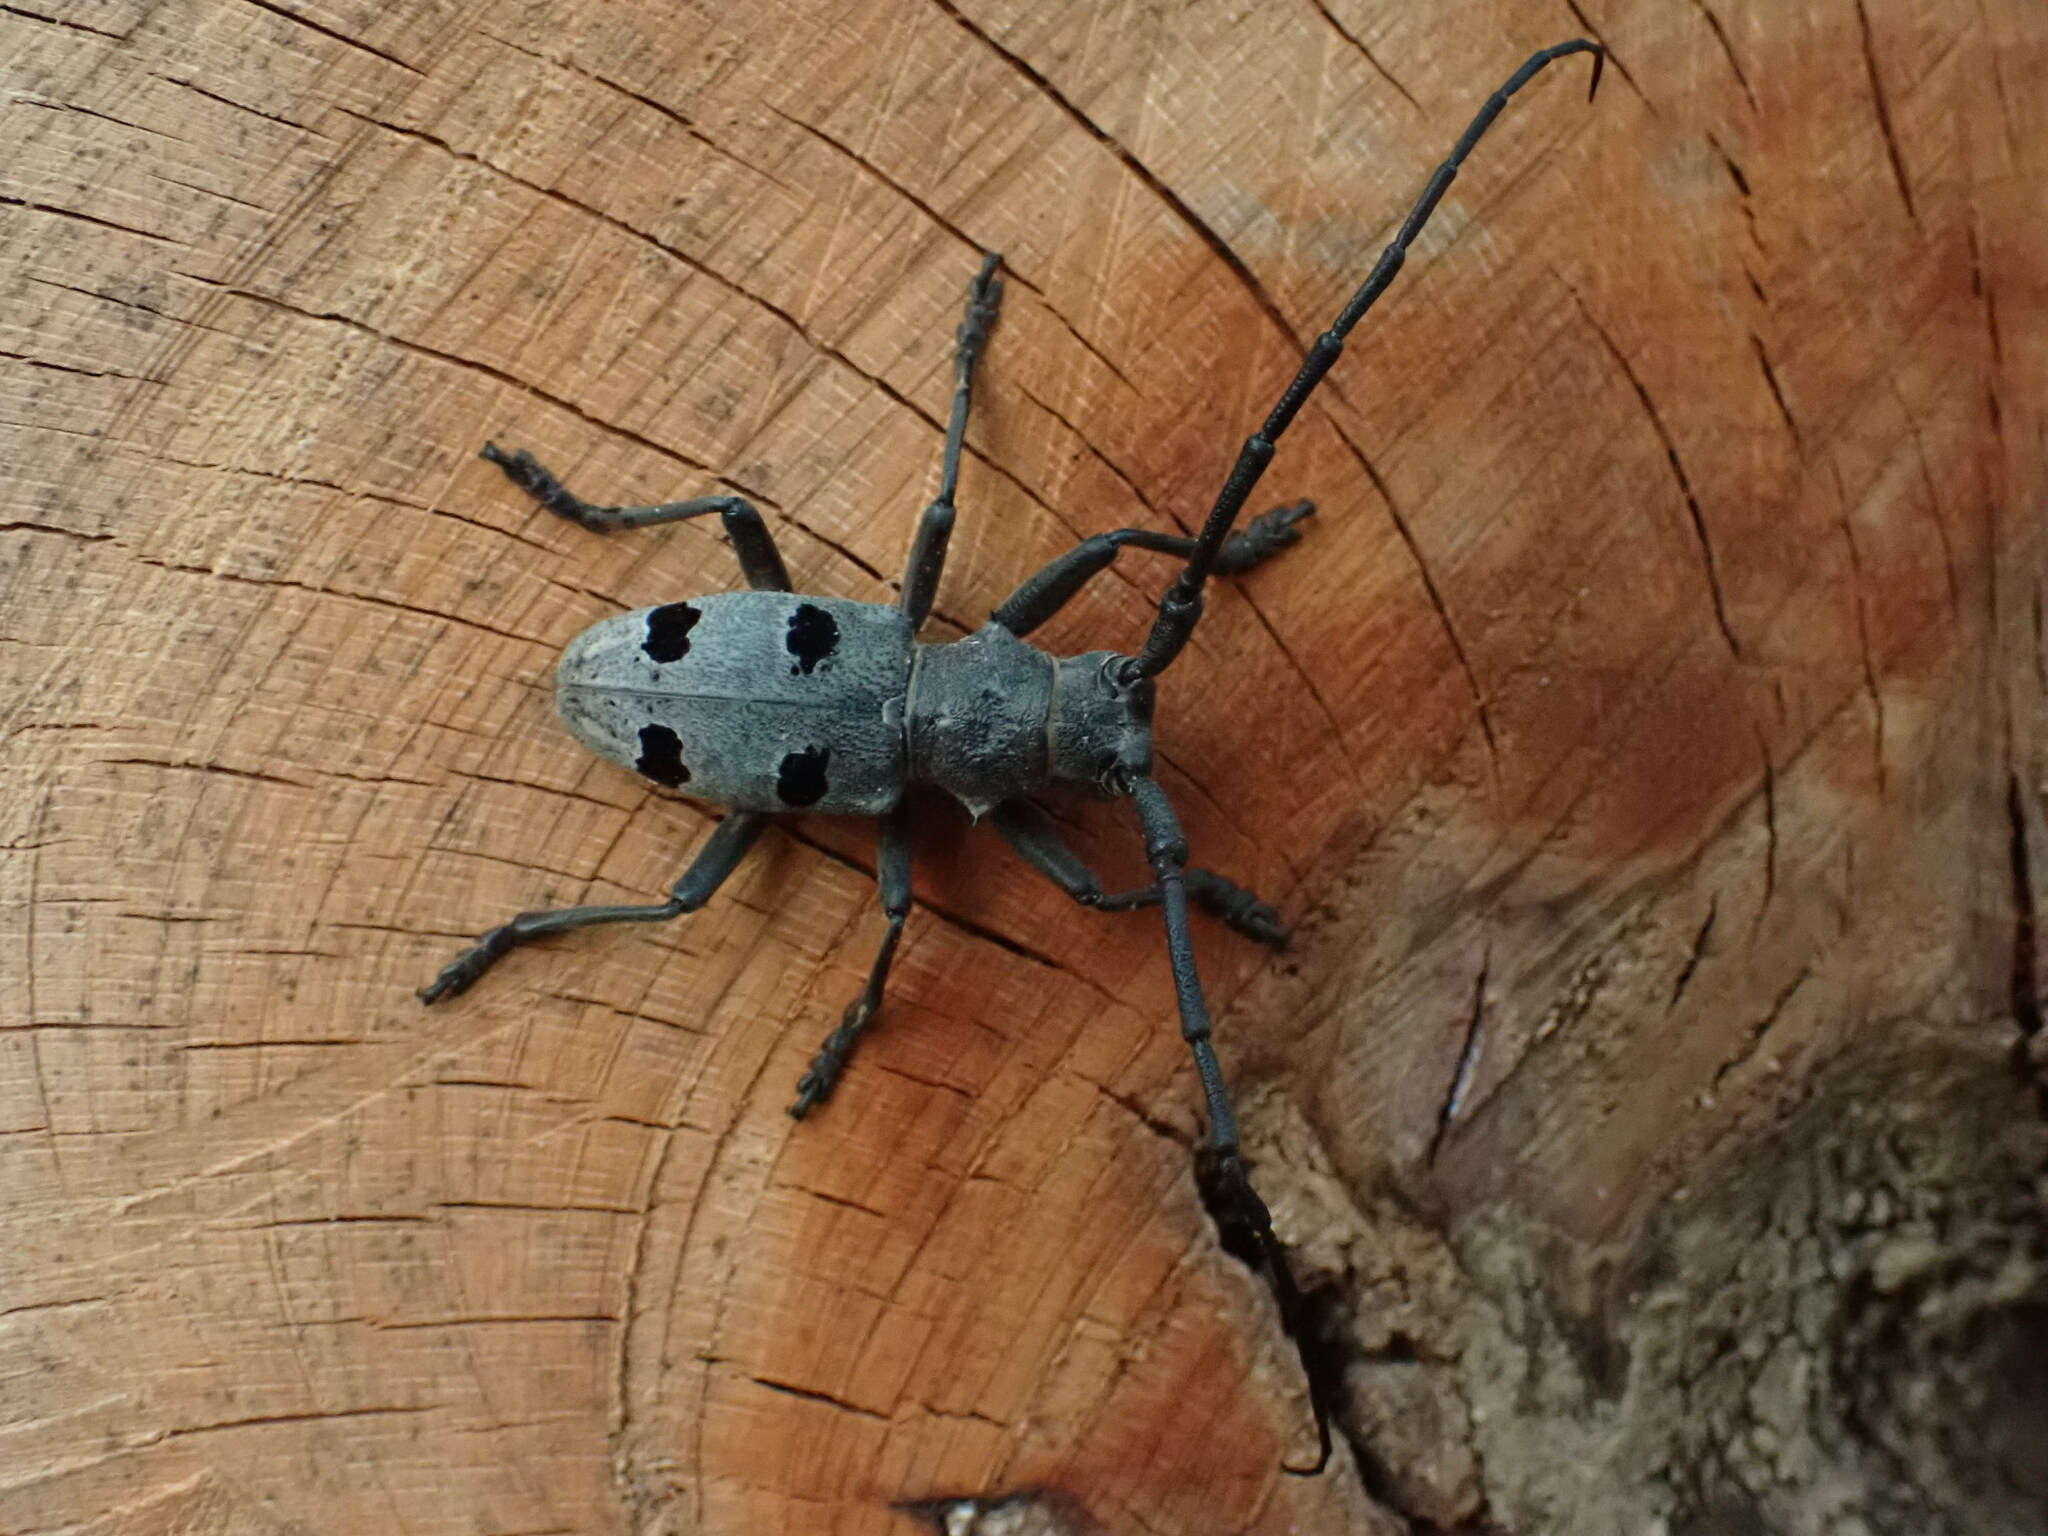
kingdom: Animalia
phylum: Arthropoda
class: Insecta
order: Coleoptera
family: Cerambycidae
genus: Morimus
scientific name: Morimus funereus
